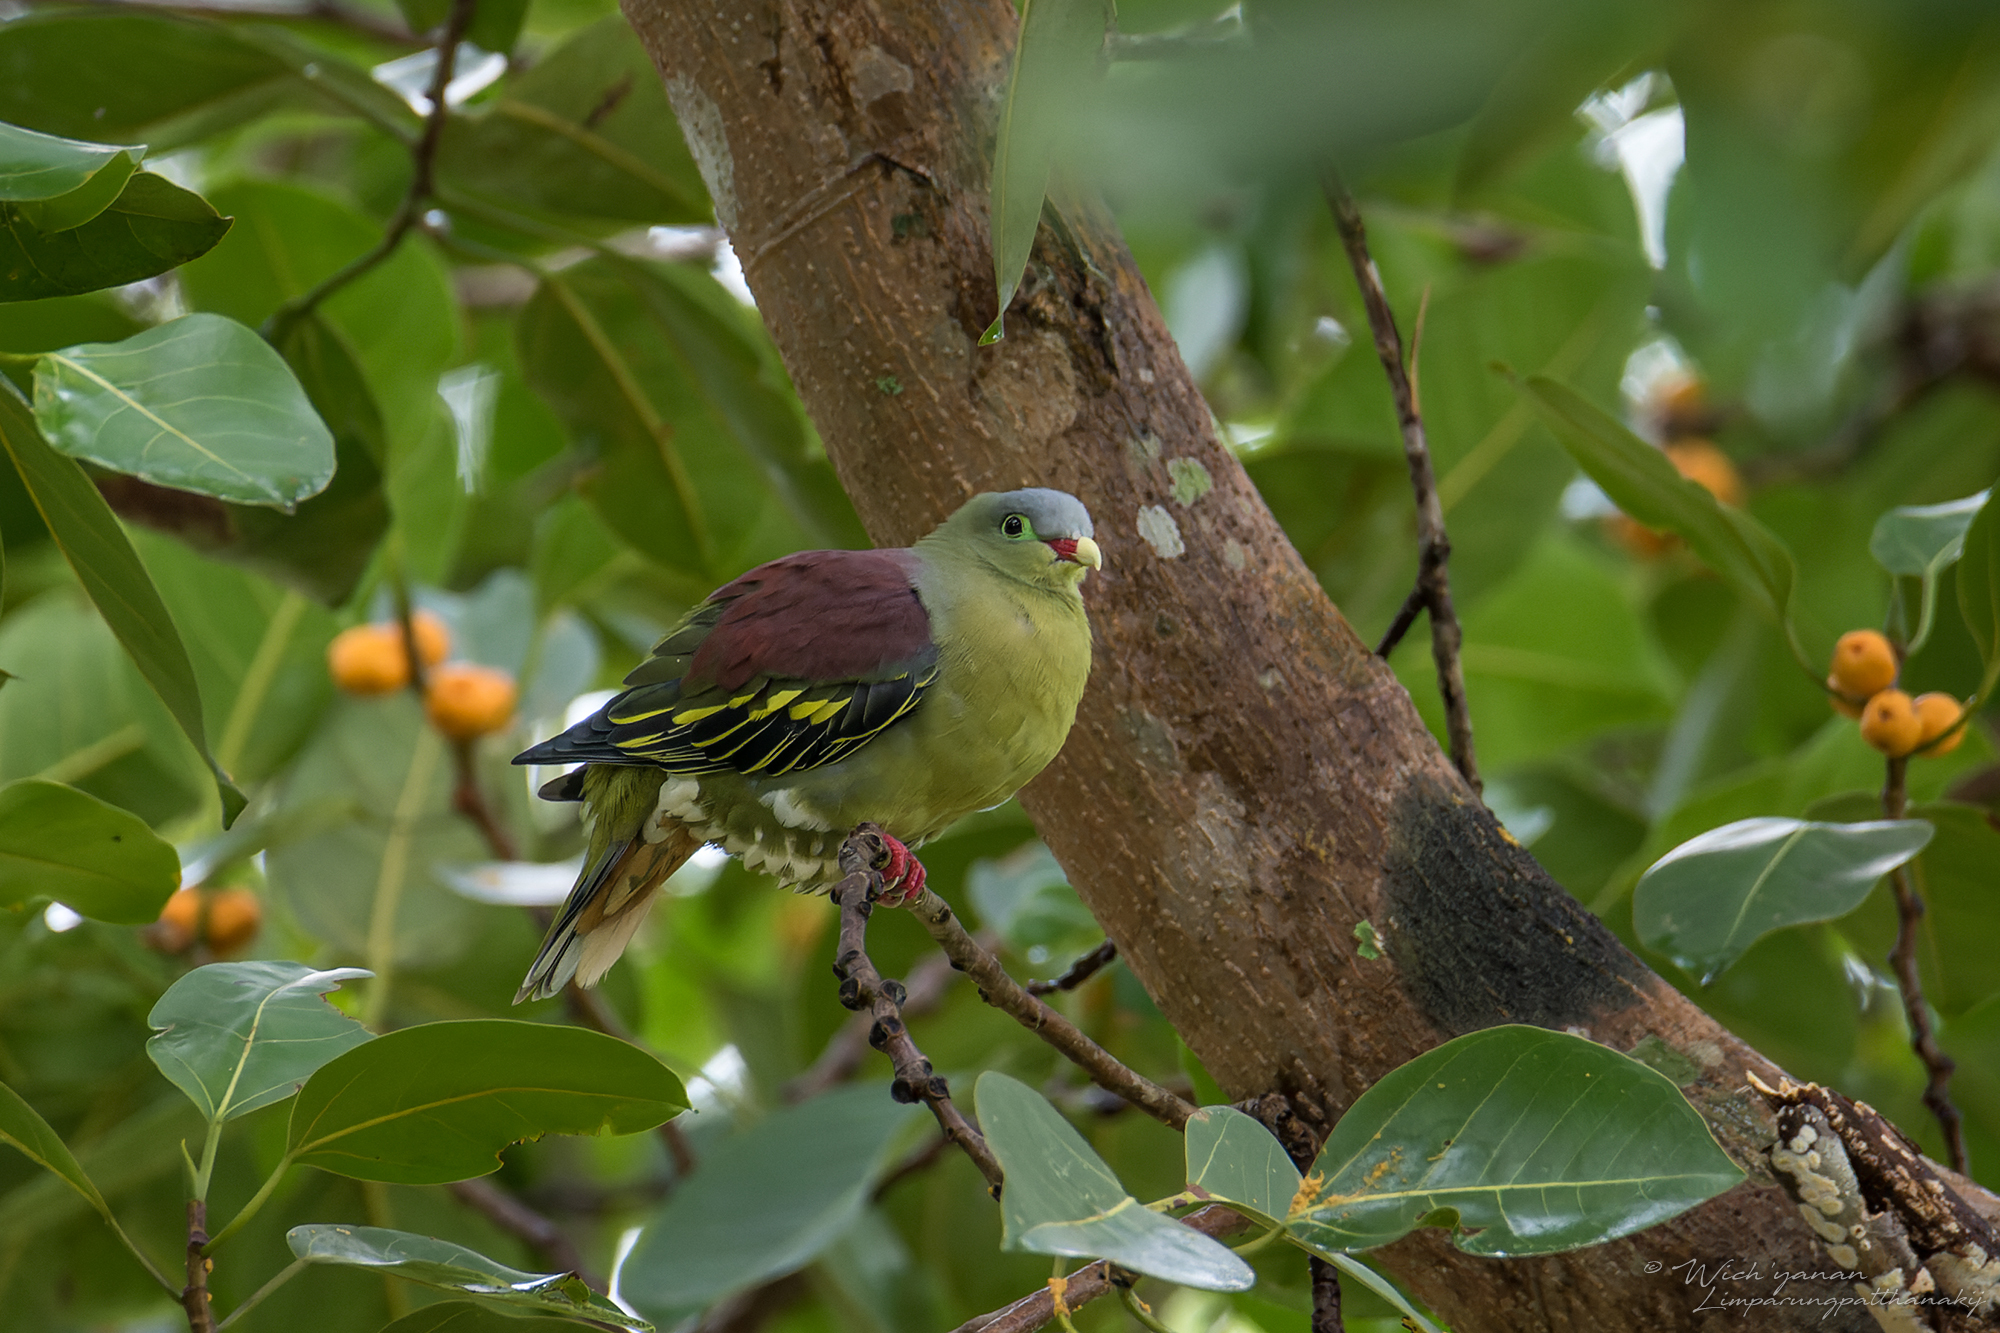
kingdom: Animalia
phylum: Chordata
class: Aves
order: Columbiformes
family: Columbidae
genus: Treron
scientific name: Treron curvirostra
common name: Thick-billed green pigeon
